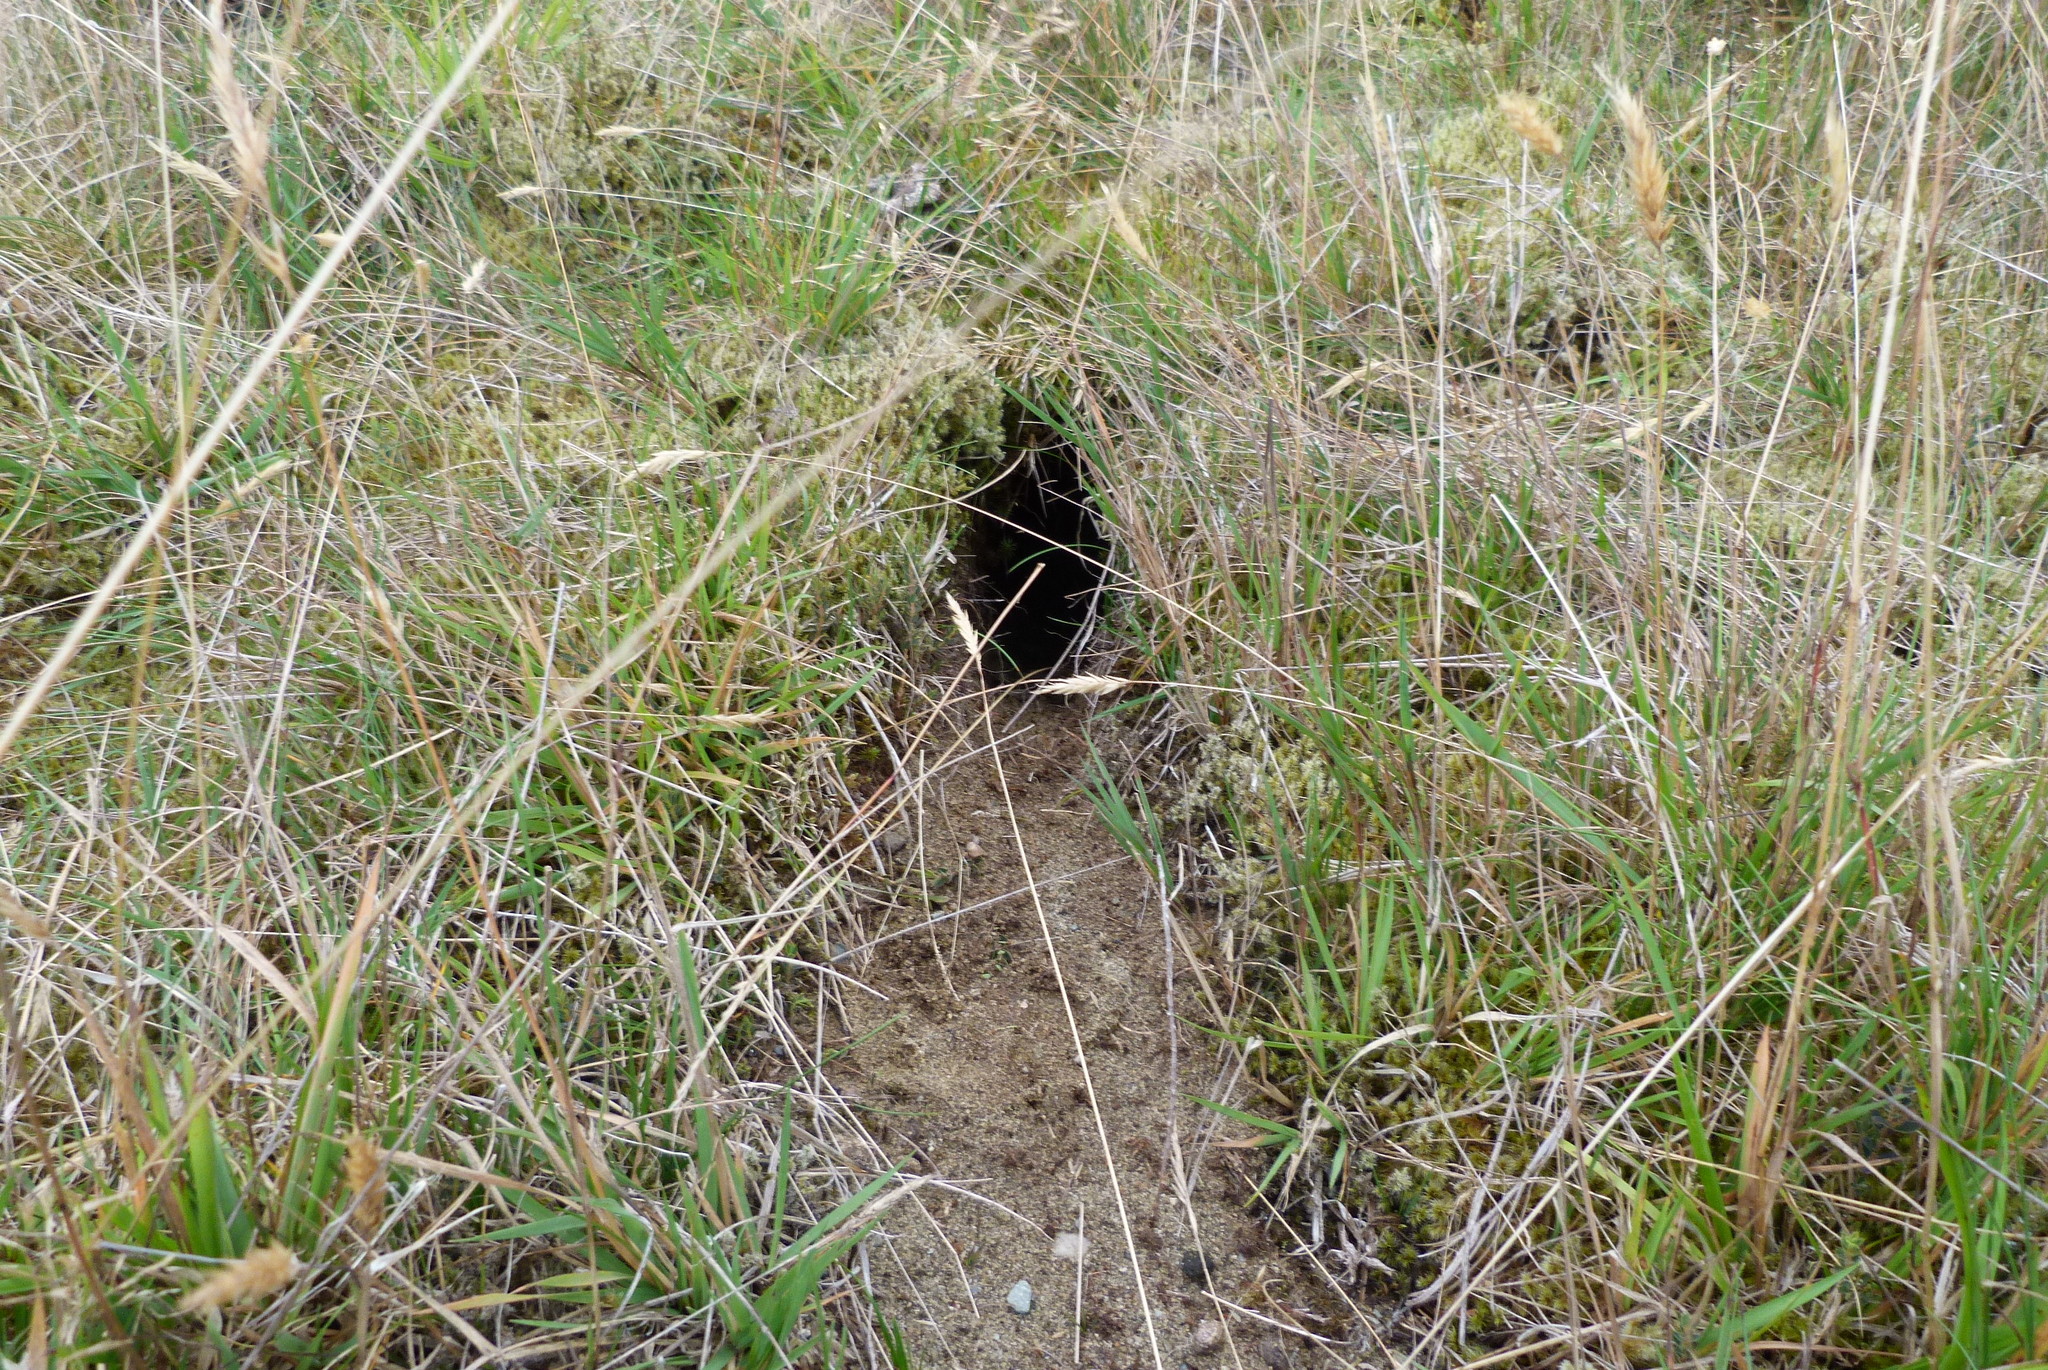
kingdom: Animalia
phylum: Chordata
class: Mammalia
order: Lagomorpha
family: Leporidae
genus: Oryctolagus
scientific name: Oryctolagus cuniculus
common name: European rabbit
